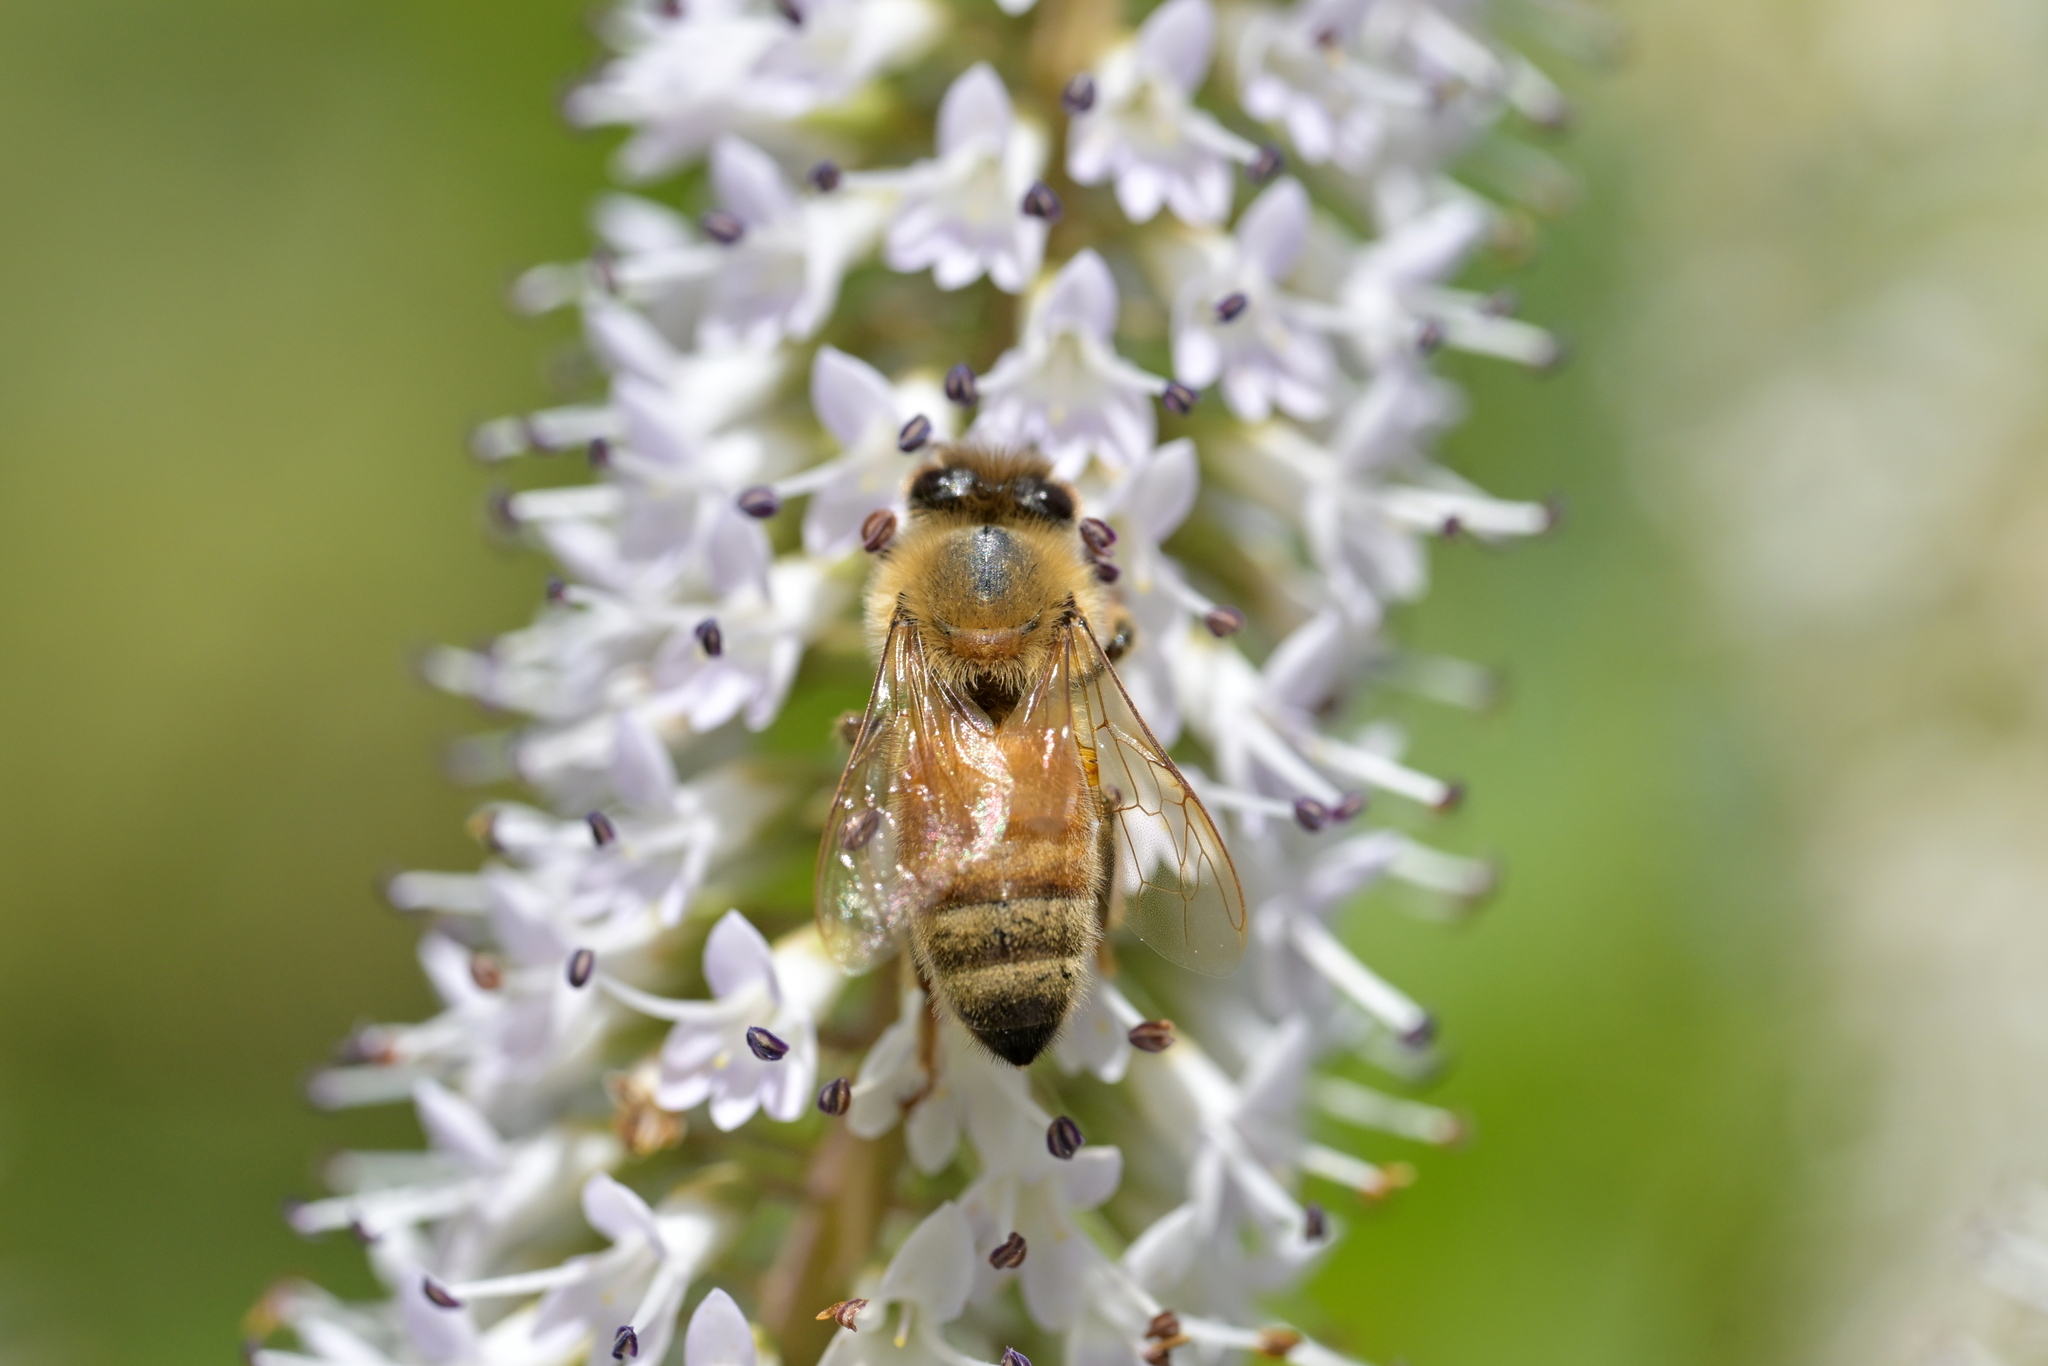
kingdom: Animalia
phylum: Arthropoda
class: Insecta
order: Hymenoptera
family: Apidae
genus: Apis
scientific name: Apis mellifera
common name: Honey bee
